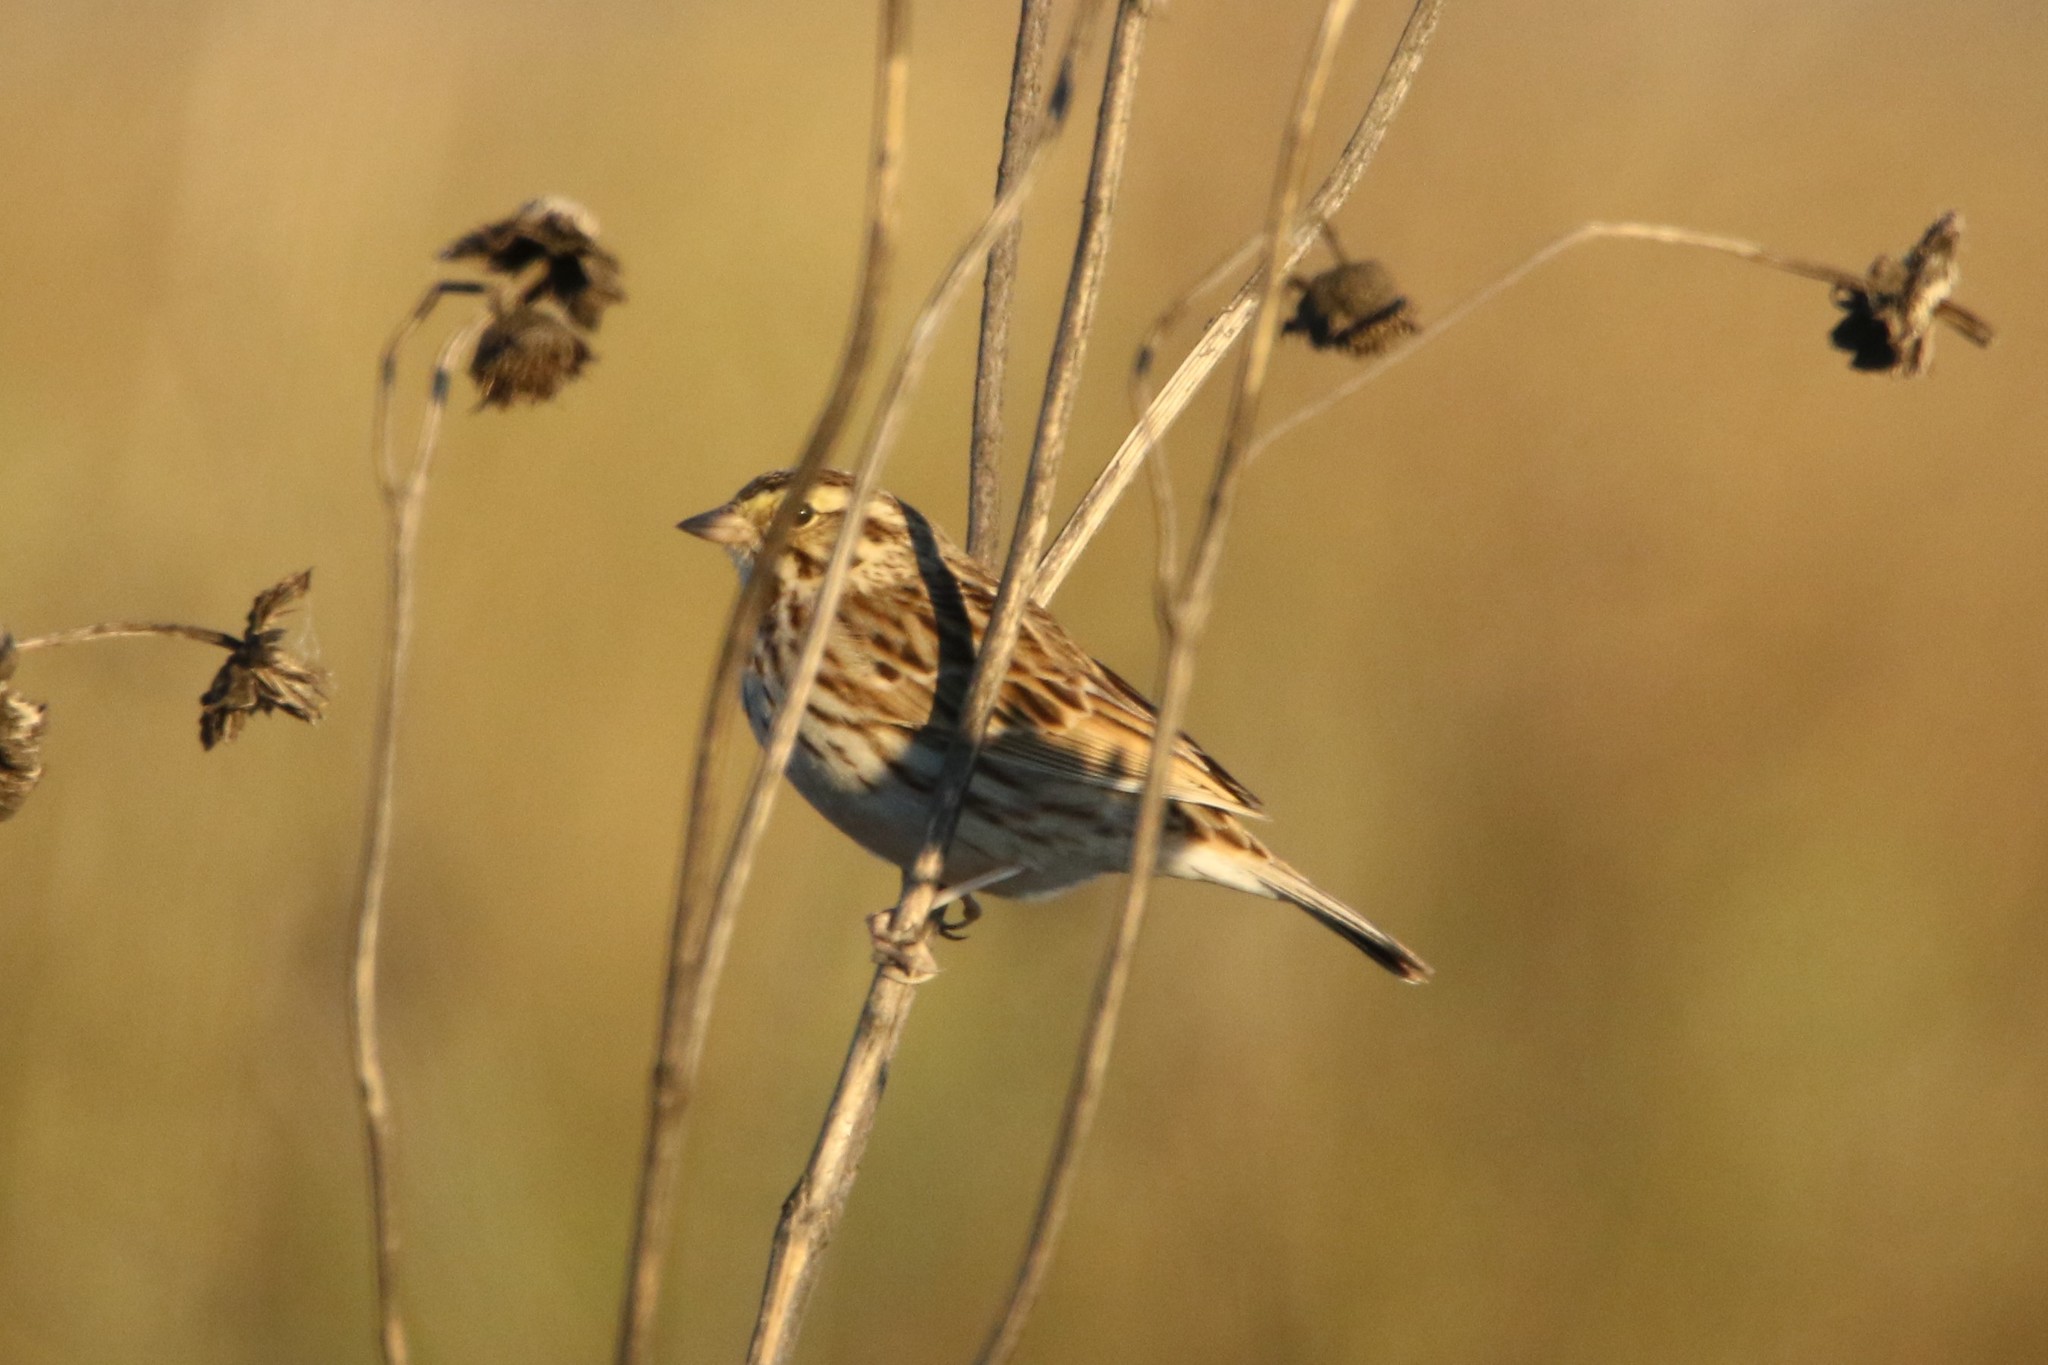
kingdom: Animalia
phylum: Chordata
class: Aves
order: Passeriformes
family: Passerellidae
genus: Passerculus
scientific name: Passerculus sandwichensis
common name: Savannah sparrow
